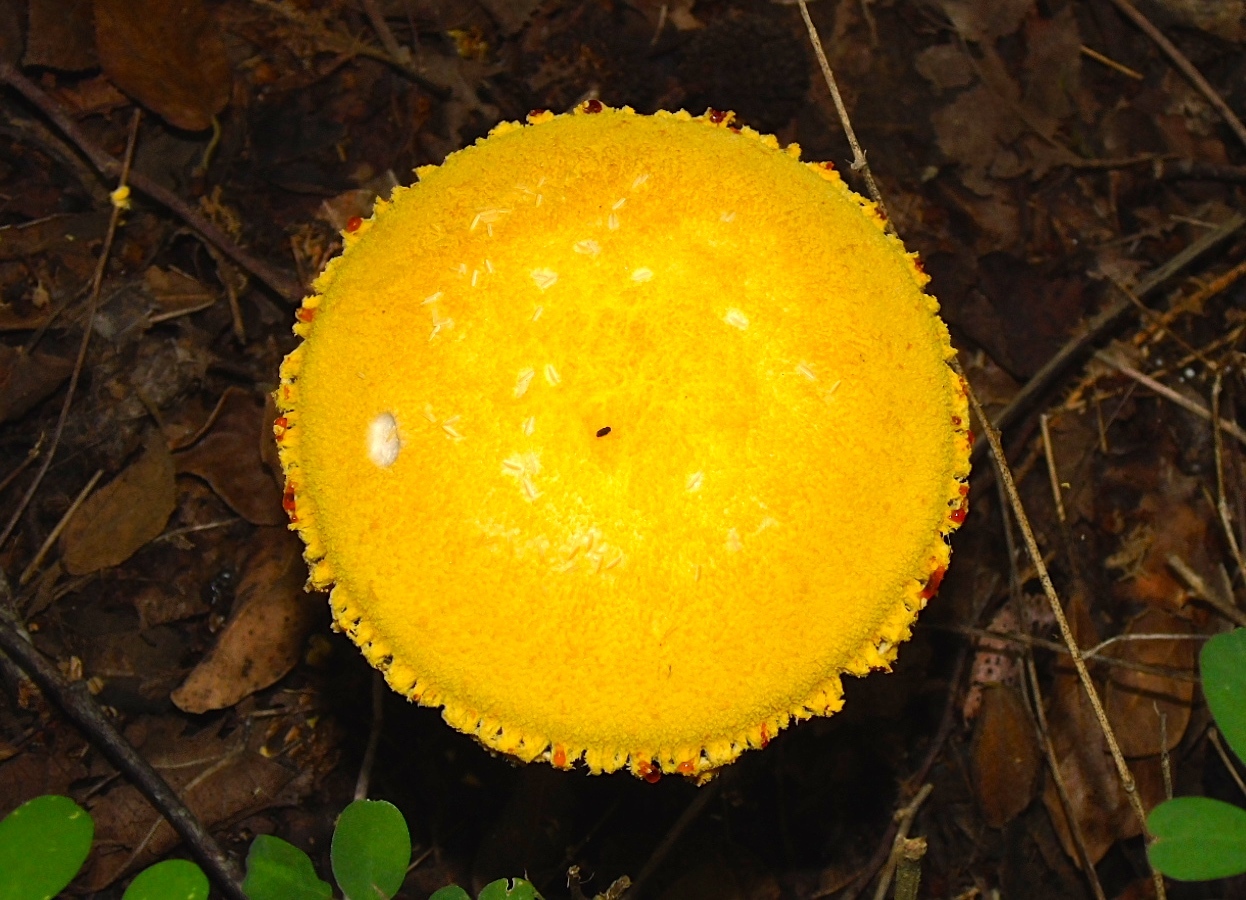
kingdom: Fungi
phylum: Basidiomycota
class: Agaricomycetes
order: Agaricales
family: Tricholomataceae
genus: Cystoderma
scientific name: Cystoderma
